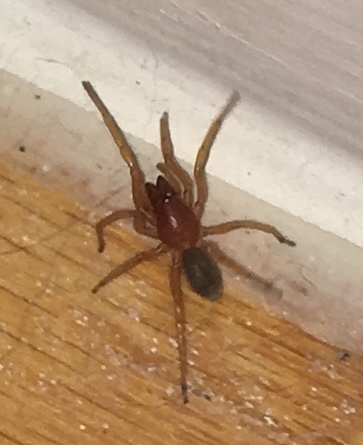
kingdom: Animalia
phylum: Arthropoda
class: Arachnida
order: Araneae
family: Dysderidae
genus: Dysdera
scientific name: Dysdera crocata
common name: Woodlouse spider
